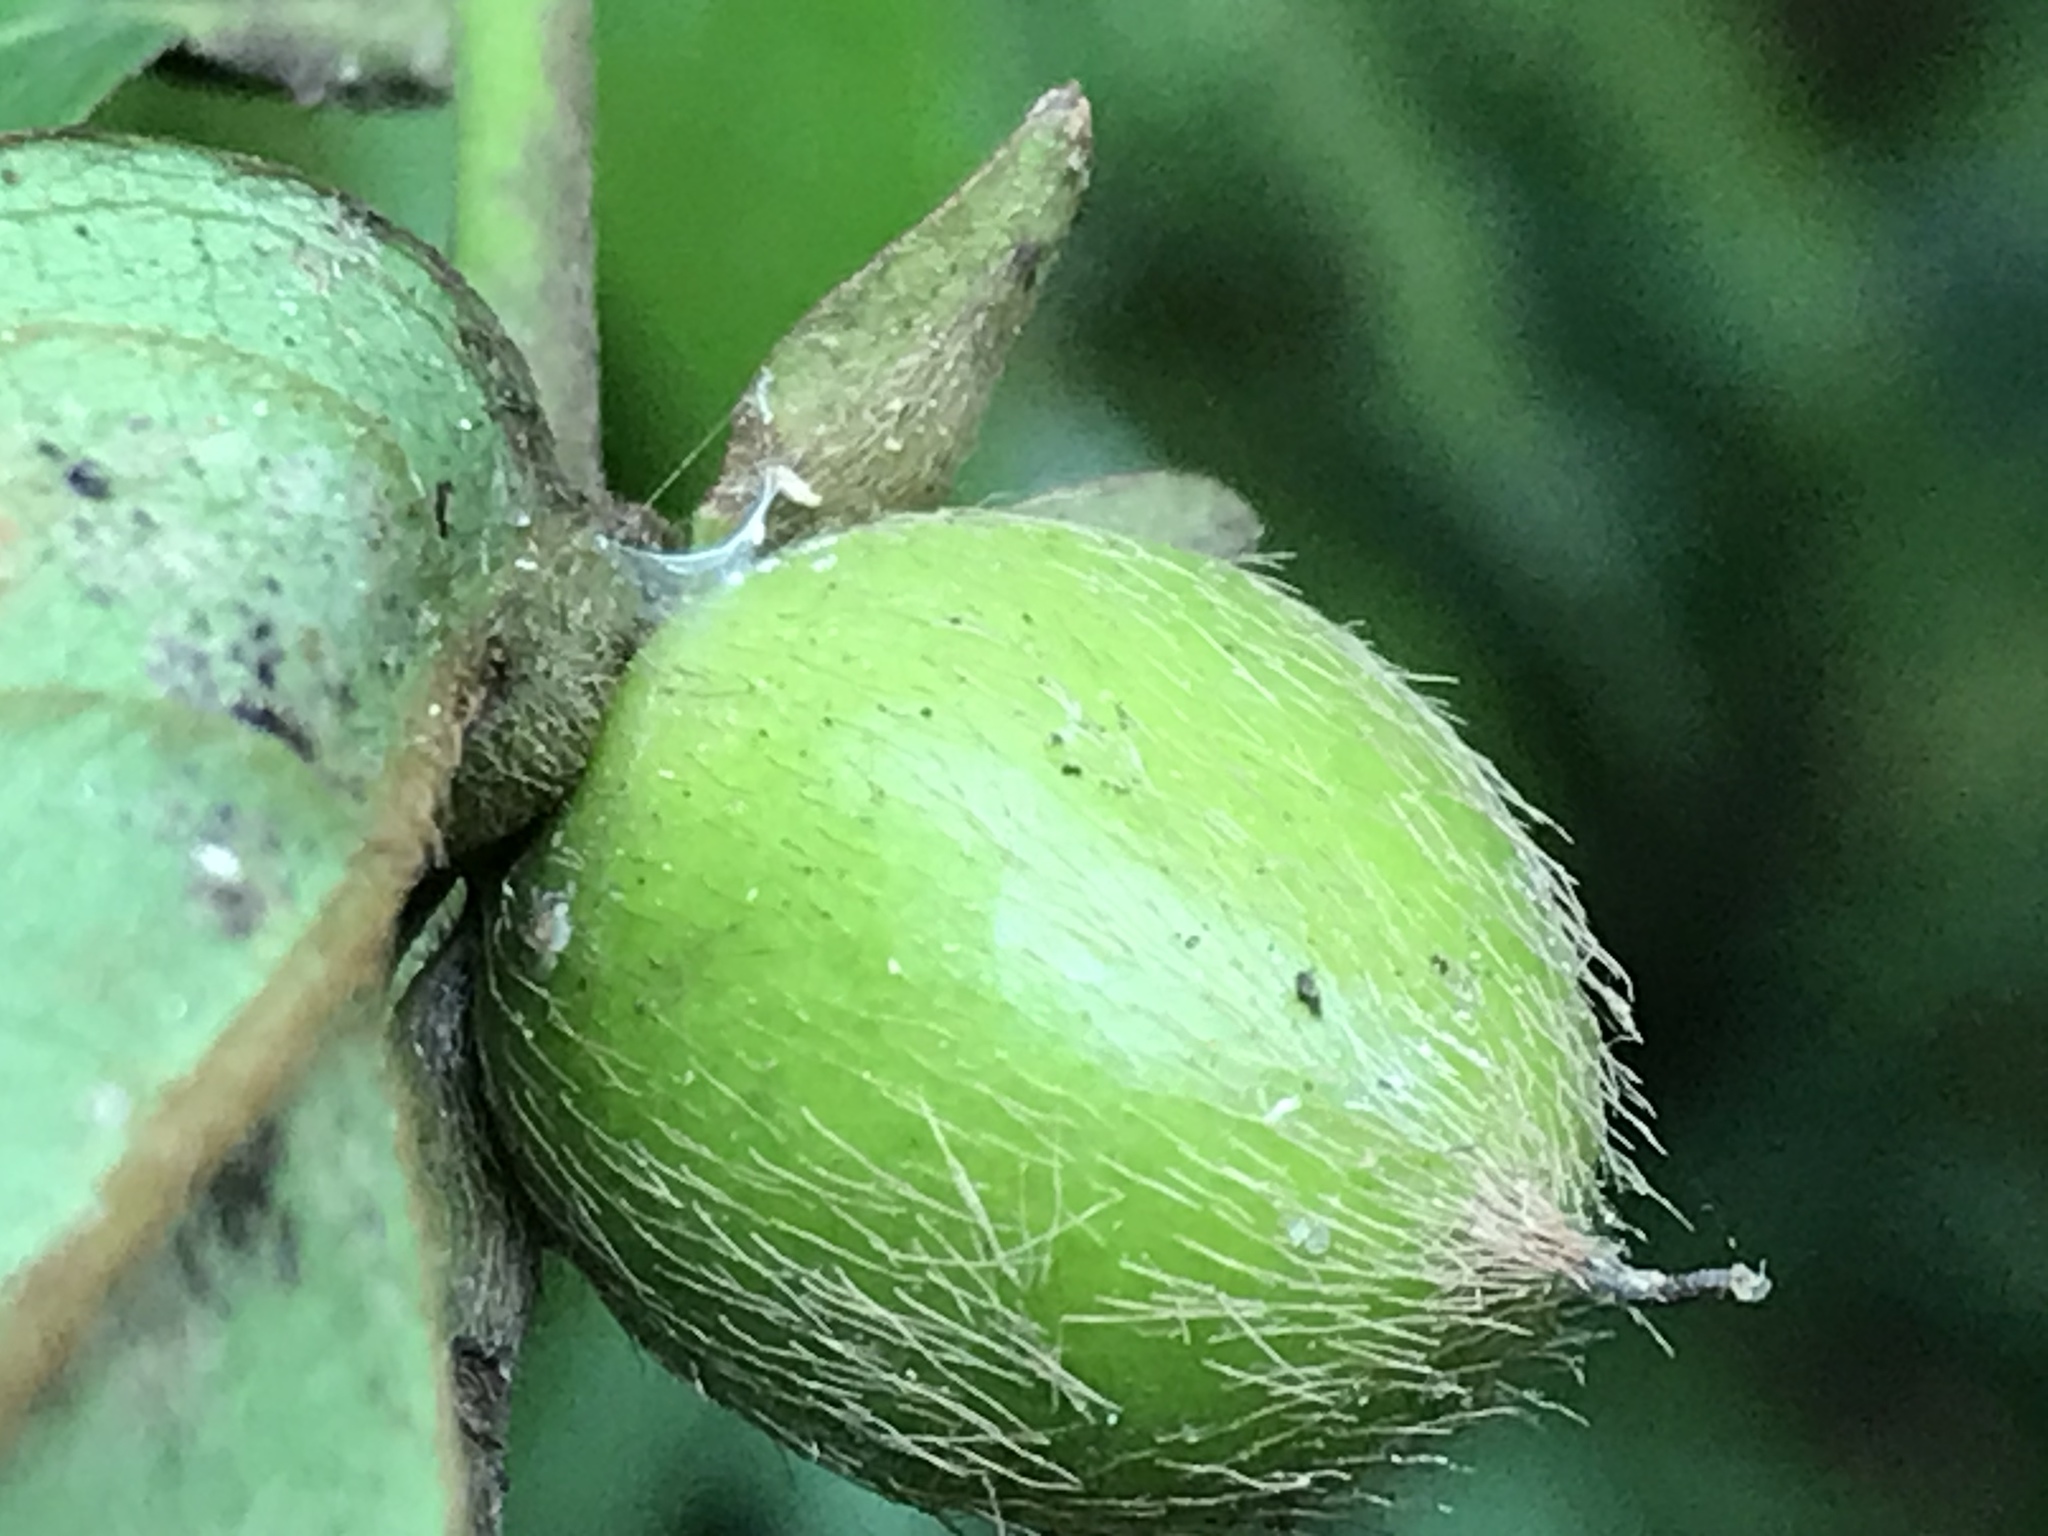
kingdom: Plantae
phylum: Tracheophyta
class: Magnoliopsida
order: Ericales
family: Ebenaceae
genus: Diospyros
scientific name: Diospyros eriantha
